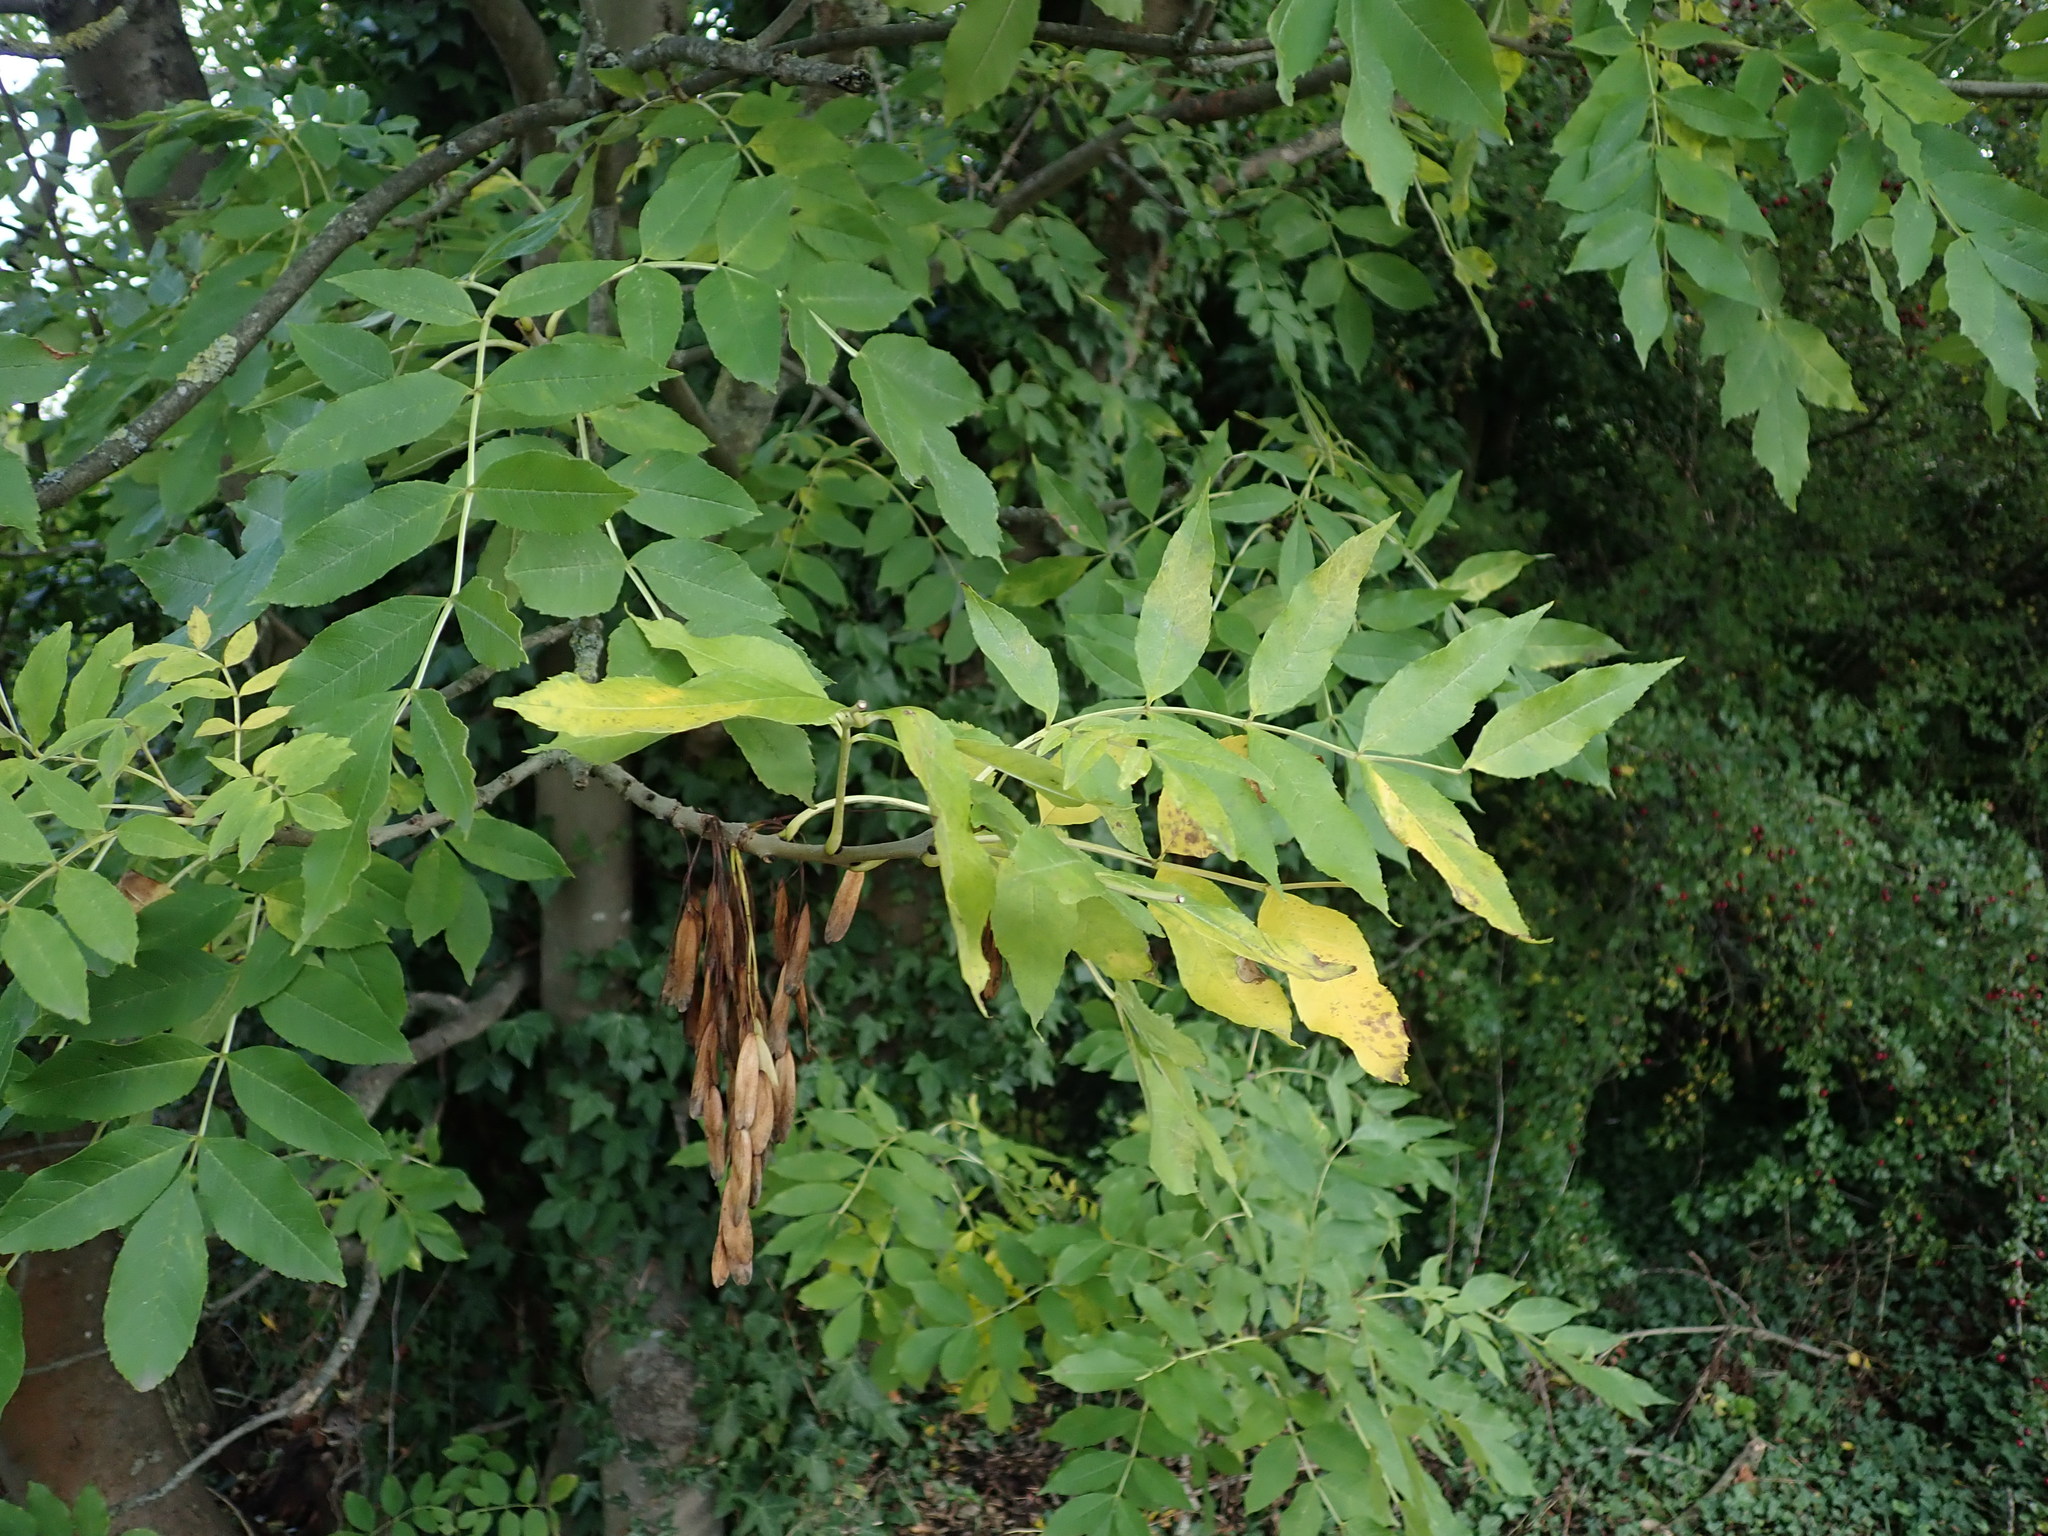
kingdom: Plantae
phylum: Tracheophyta
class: Magnoliopsida
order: Lamiales
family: Oleaceae
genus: Fraxinus
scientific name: Fraxinus excelsior
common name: European ash
